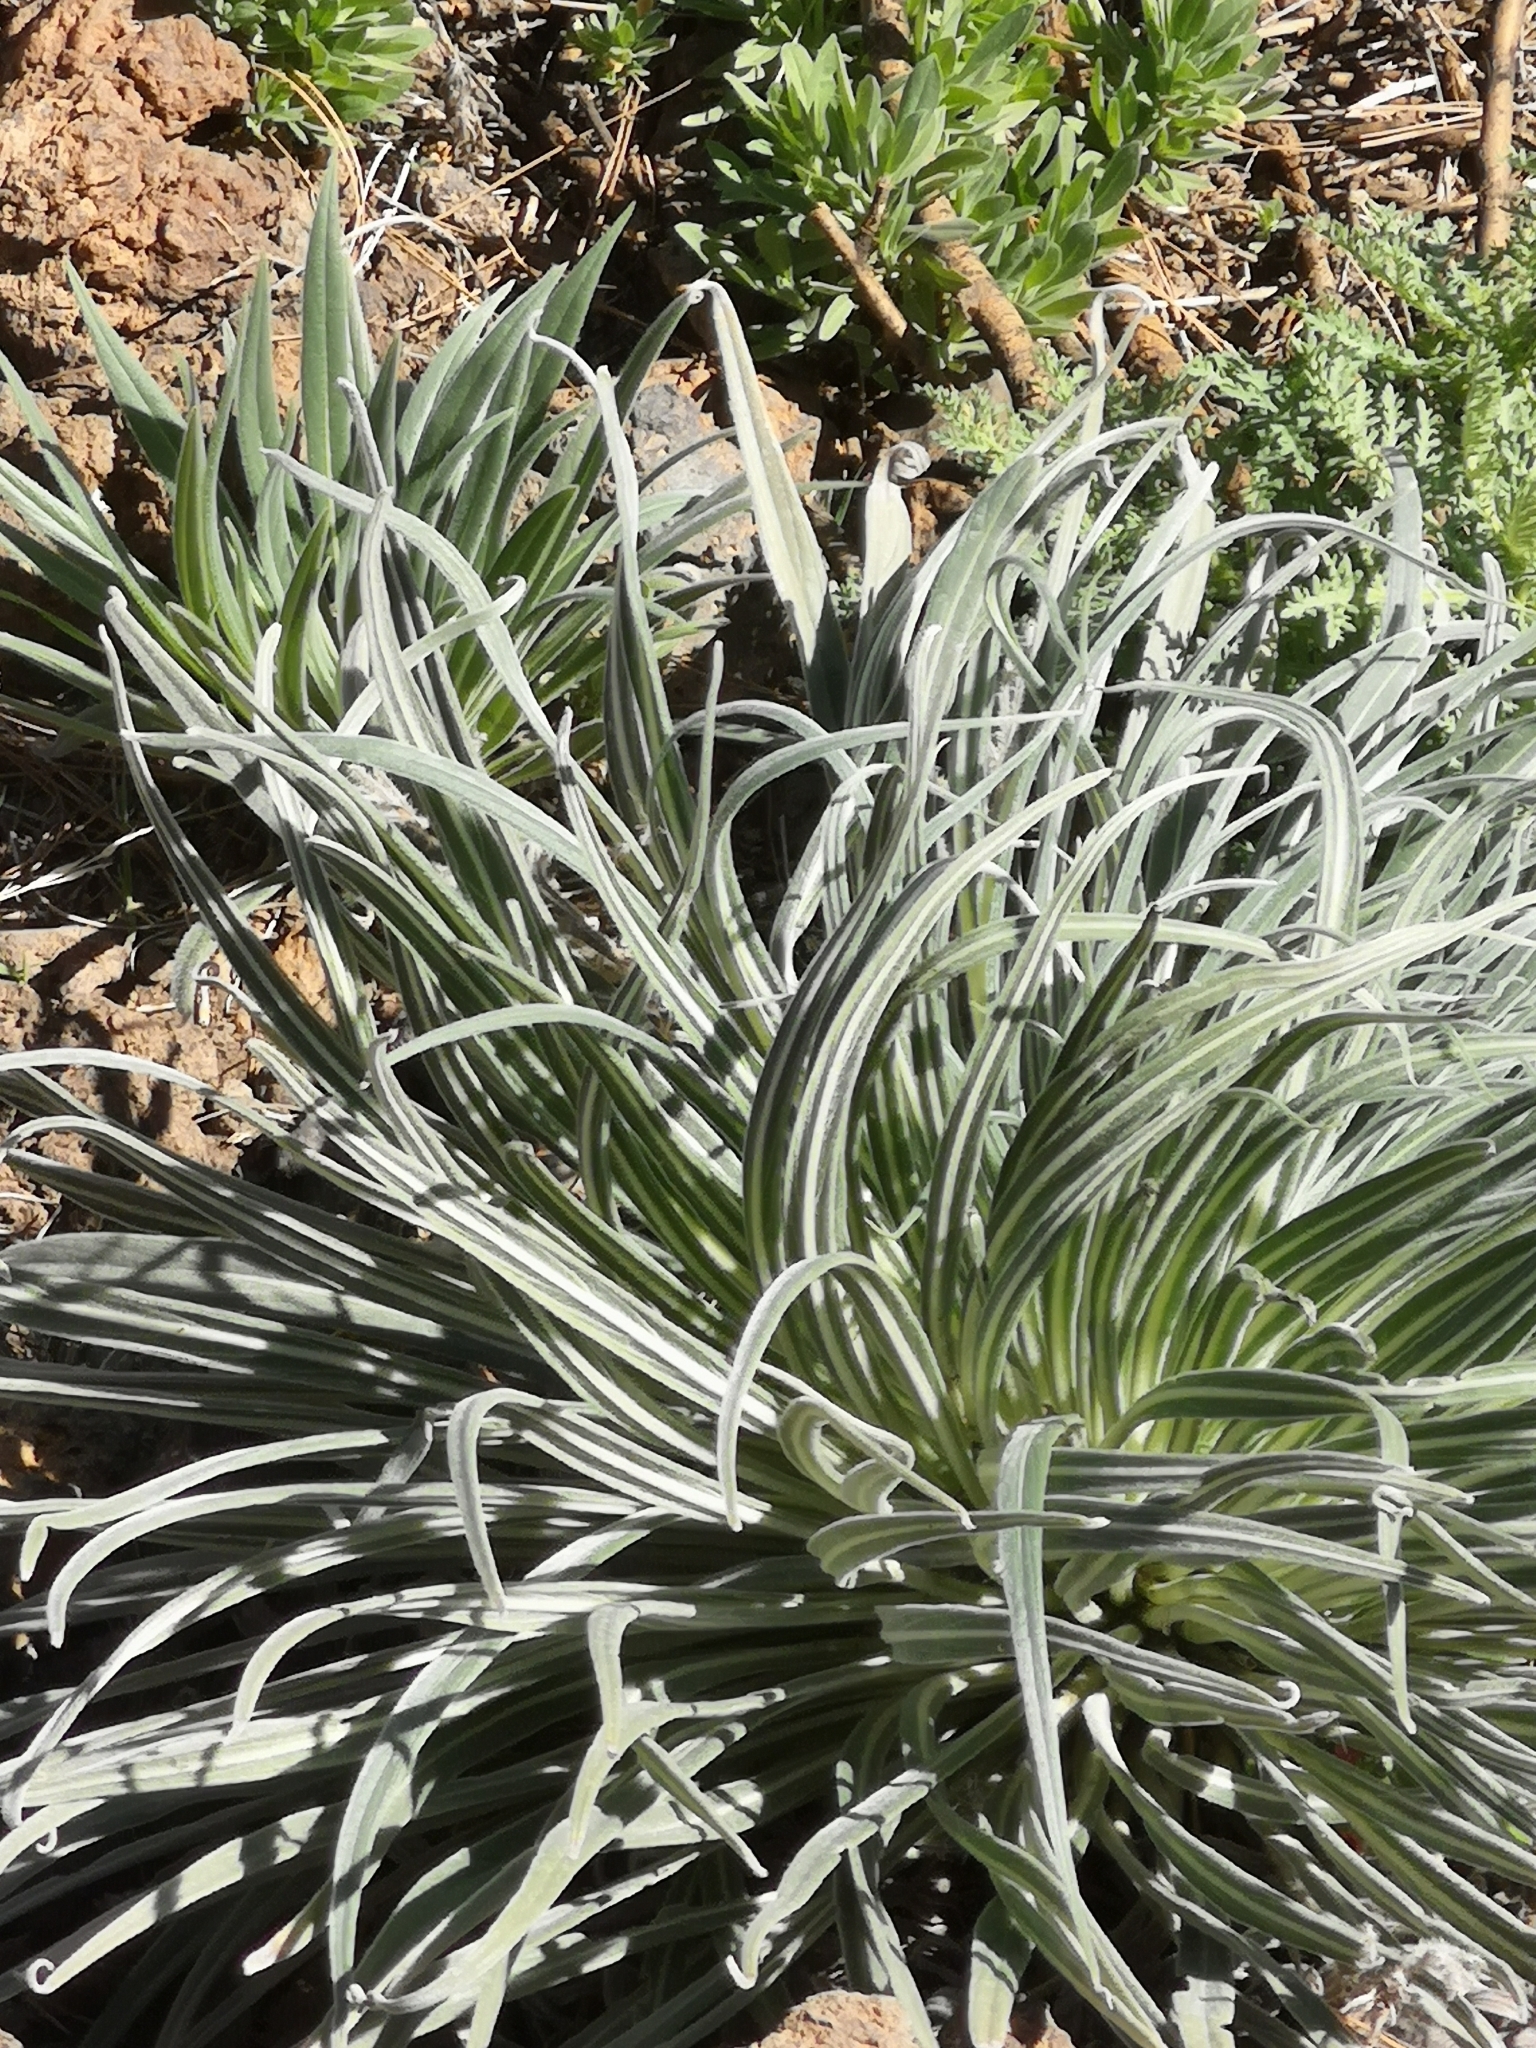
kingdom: Plantae
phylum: Tracheophyta
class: Magnoliopsida
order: Boraginales
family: Boraginaceae
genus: Echium
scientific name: Echium wildpretii
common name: Tower-of-jewels
